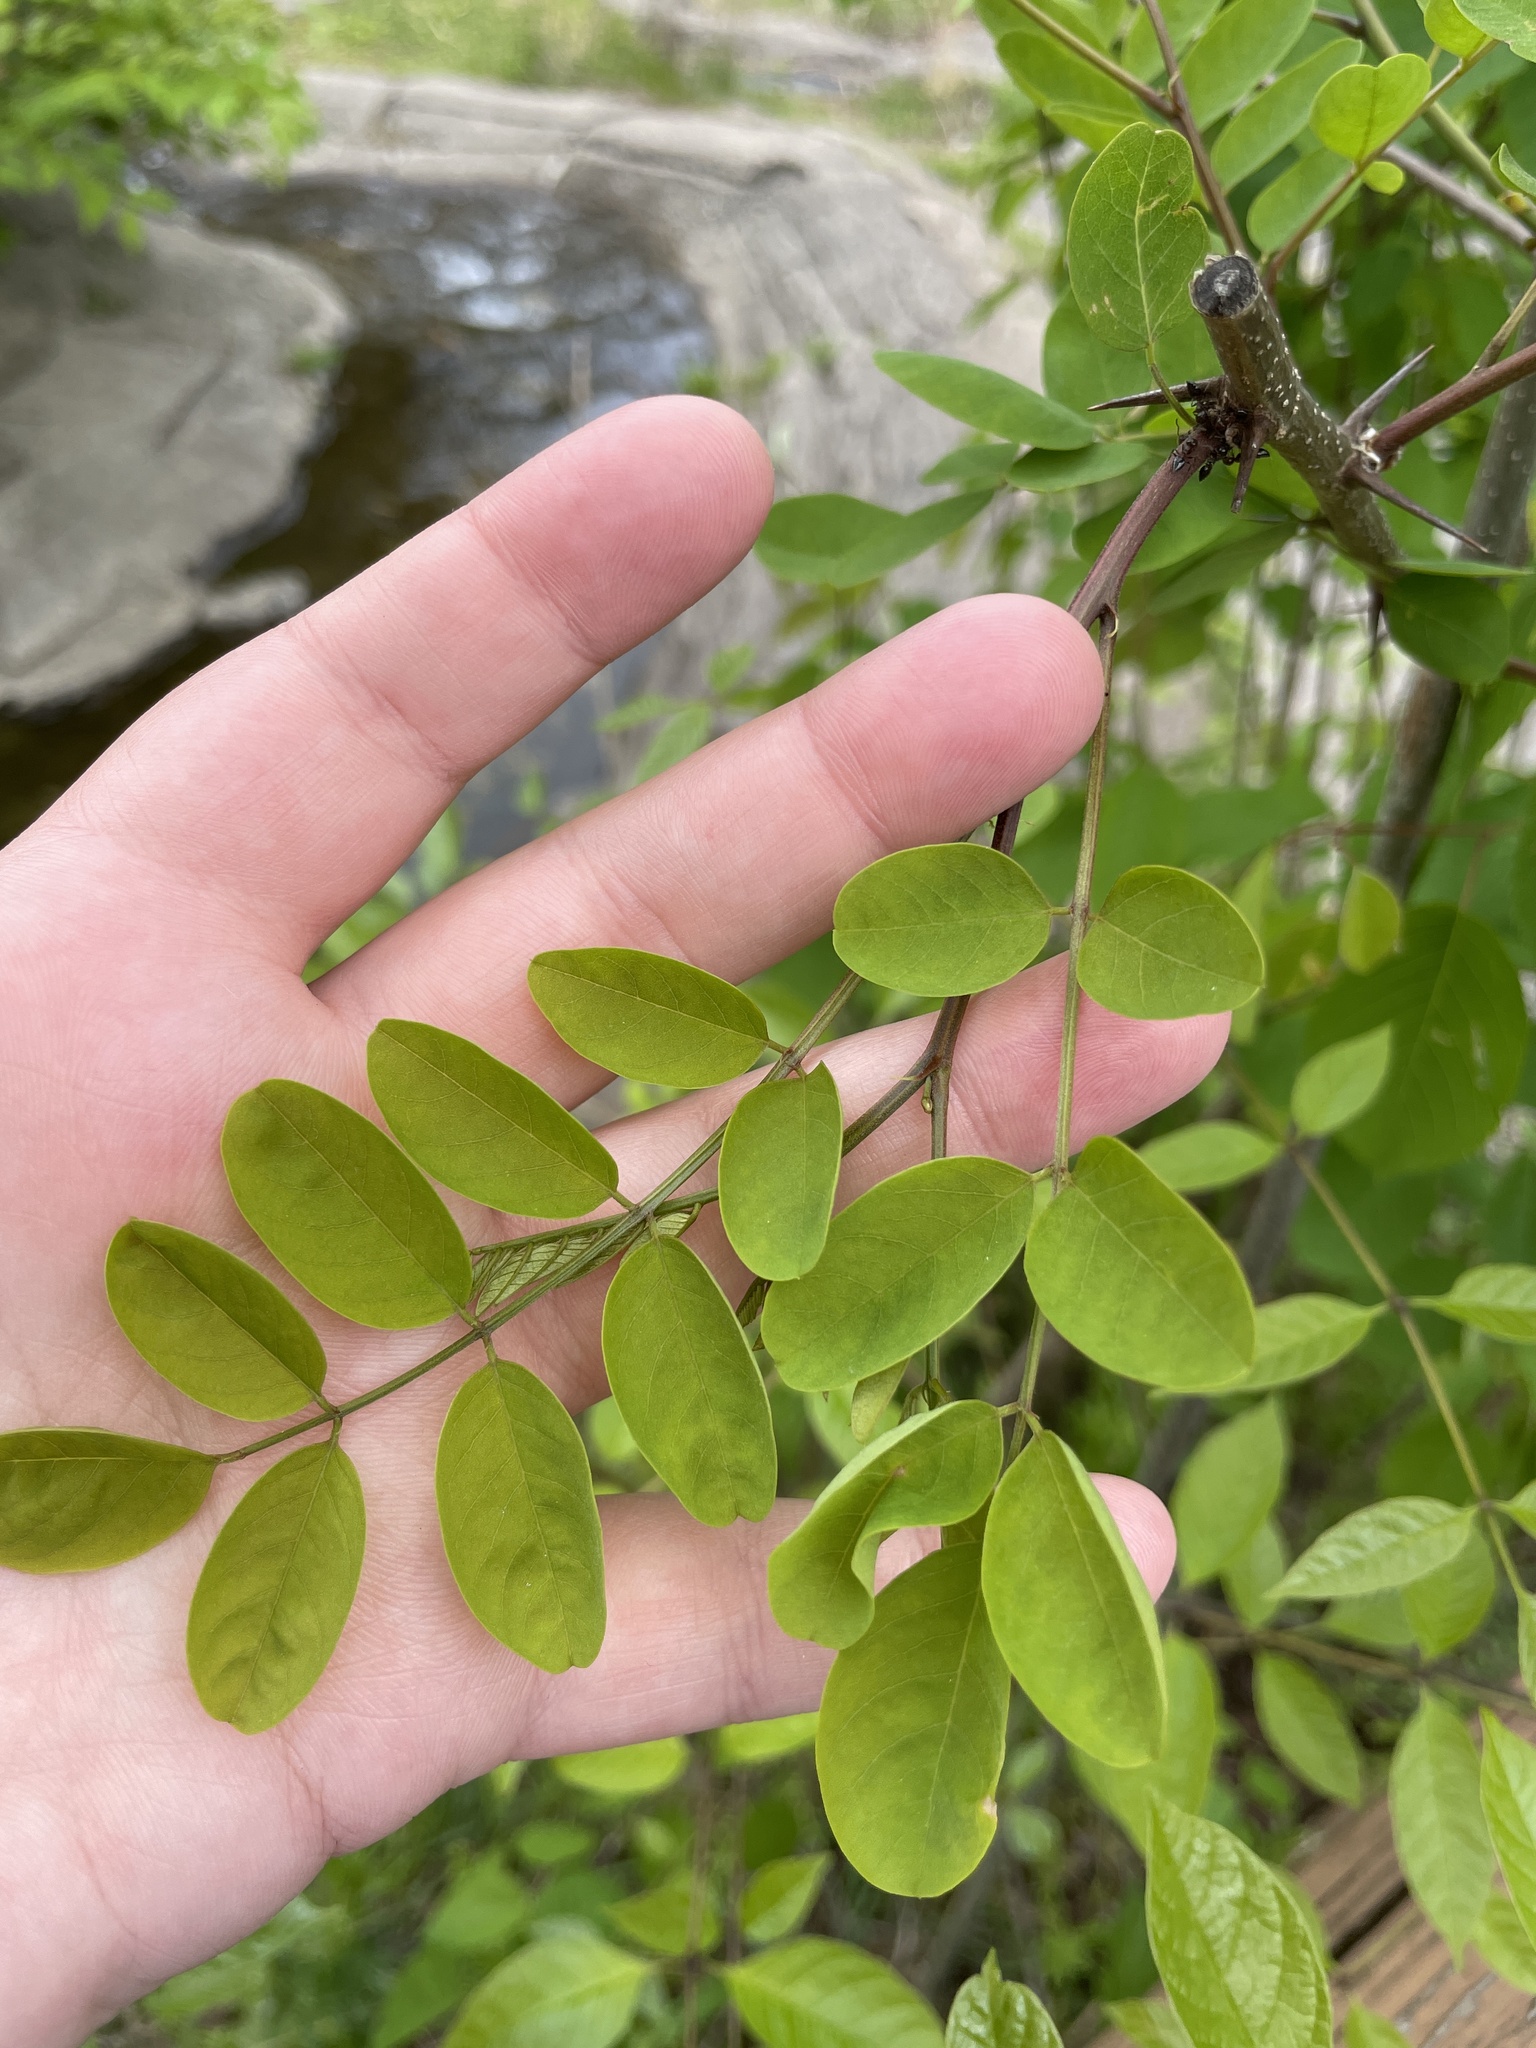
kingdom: Plantae
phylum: Tracheophyta
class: Magnoliopsida
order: Fabales
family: Fabaceae
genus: Robinia
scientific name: Robinia pseudoacacia
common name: Black locust
